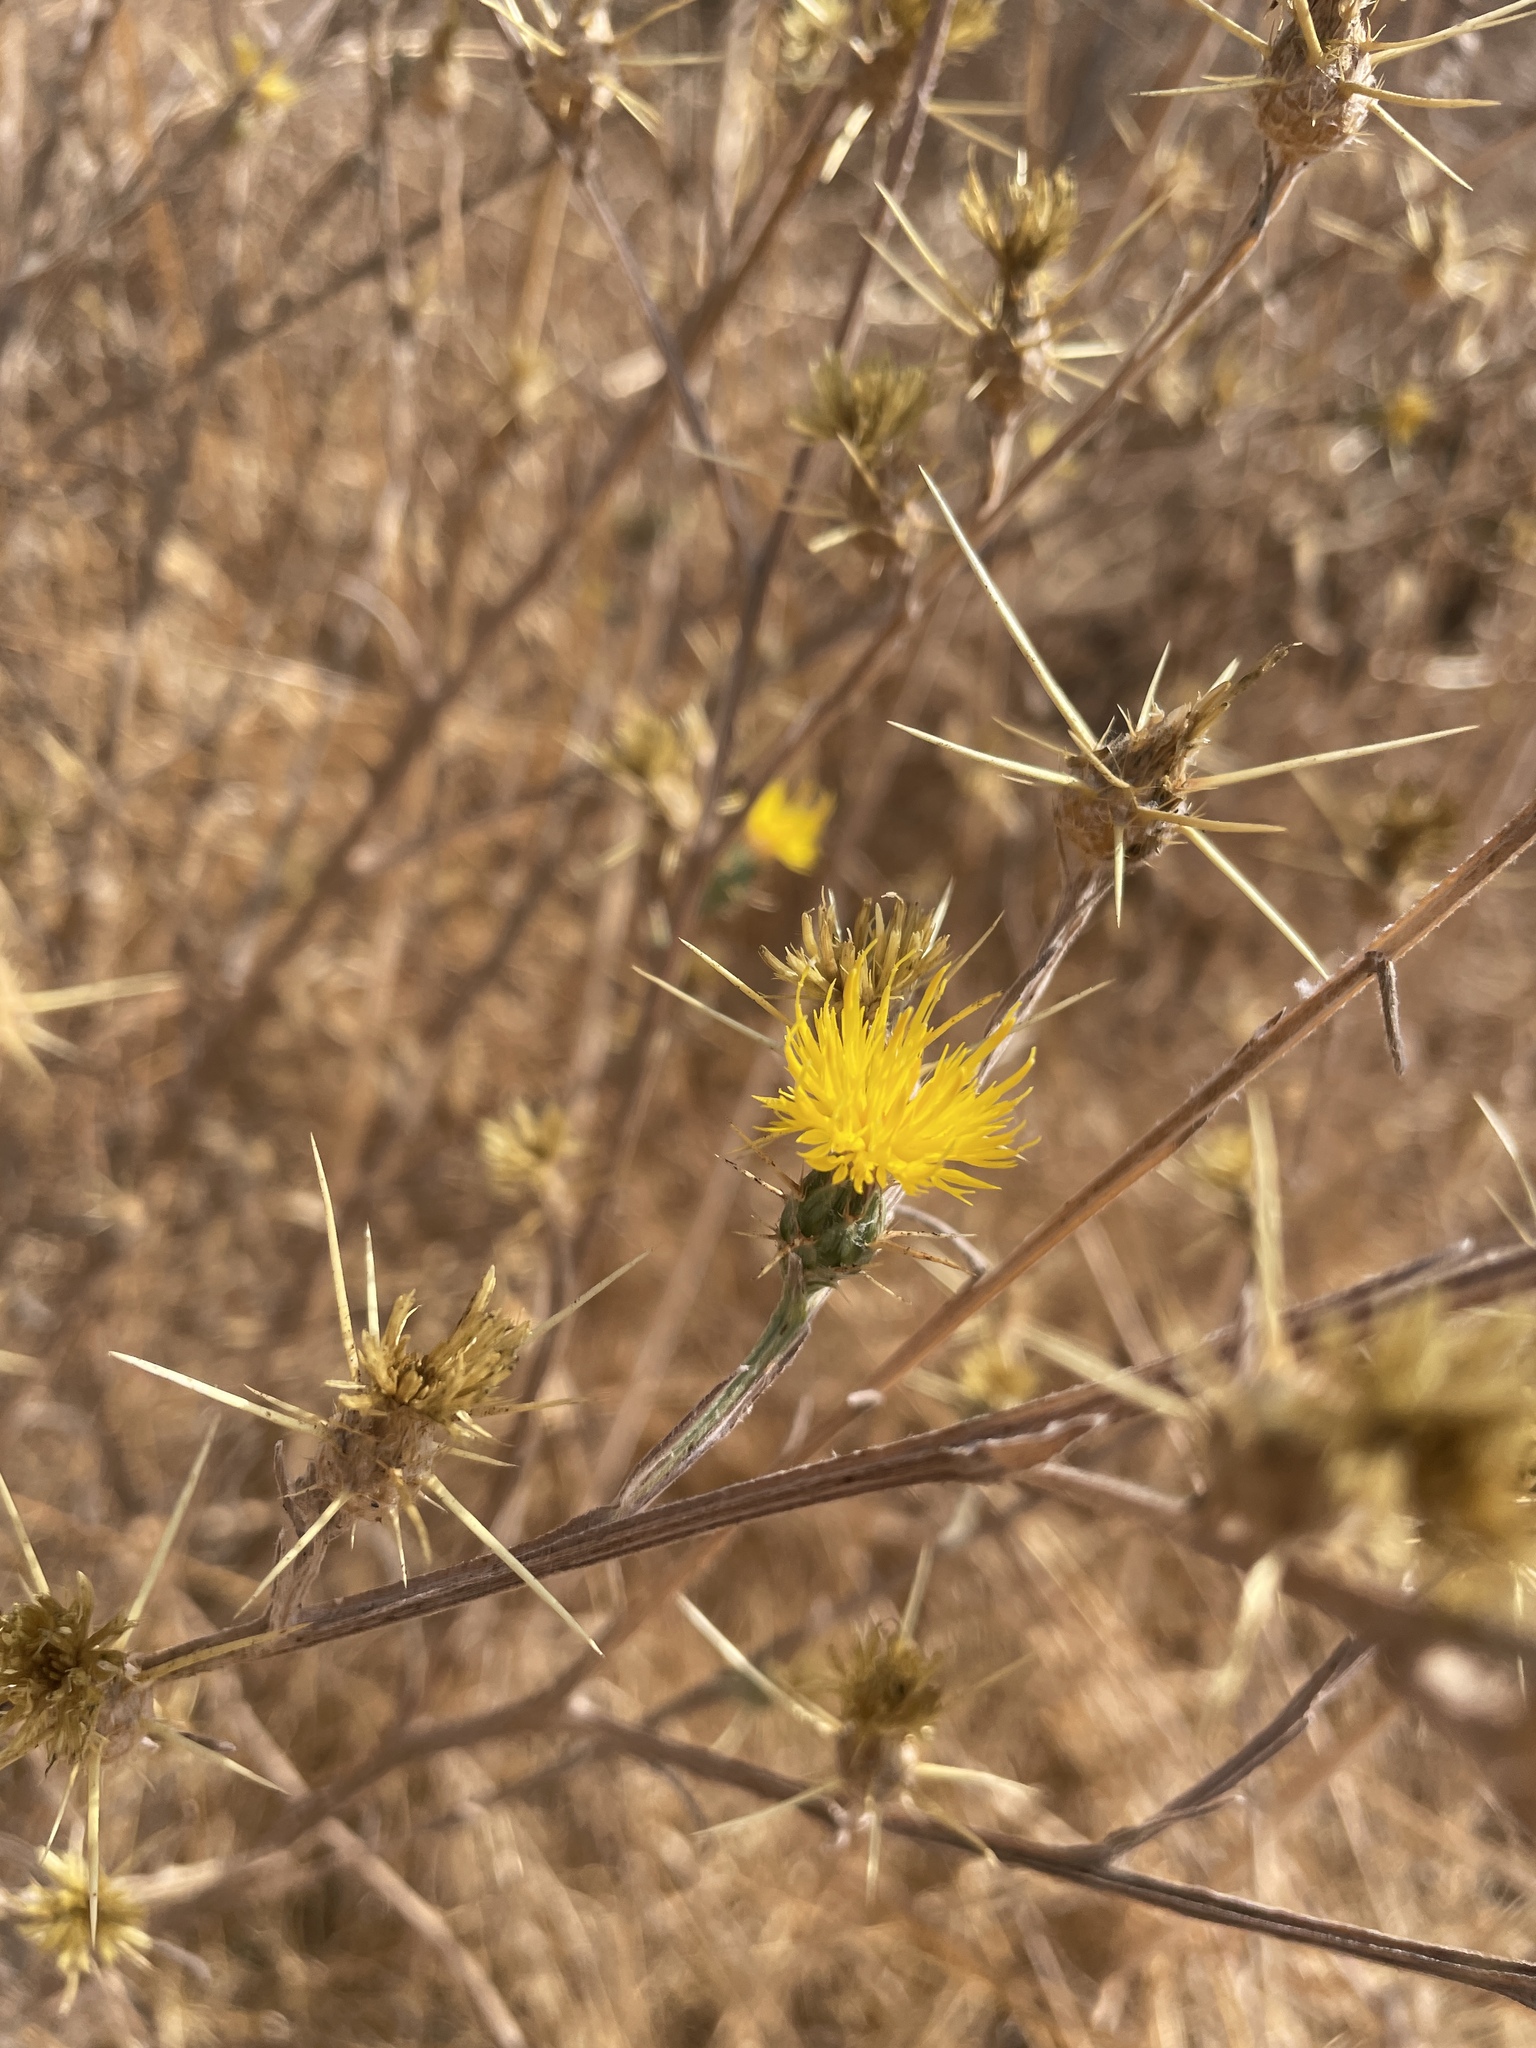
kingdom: Plantae
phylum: Tracheophyta
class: Magnoliopsida
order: Asterales
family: Asteraceae
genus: Centaurea
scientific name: Centaurea solstitialis
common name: Yellow star-thistle
